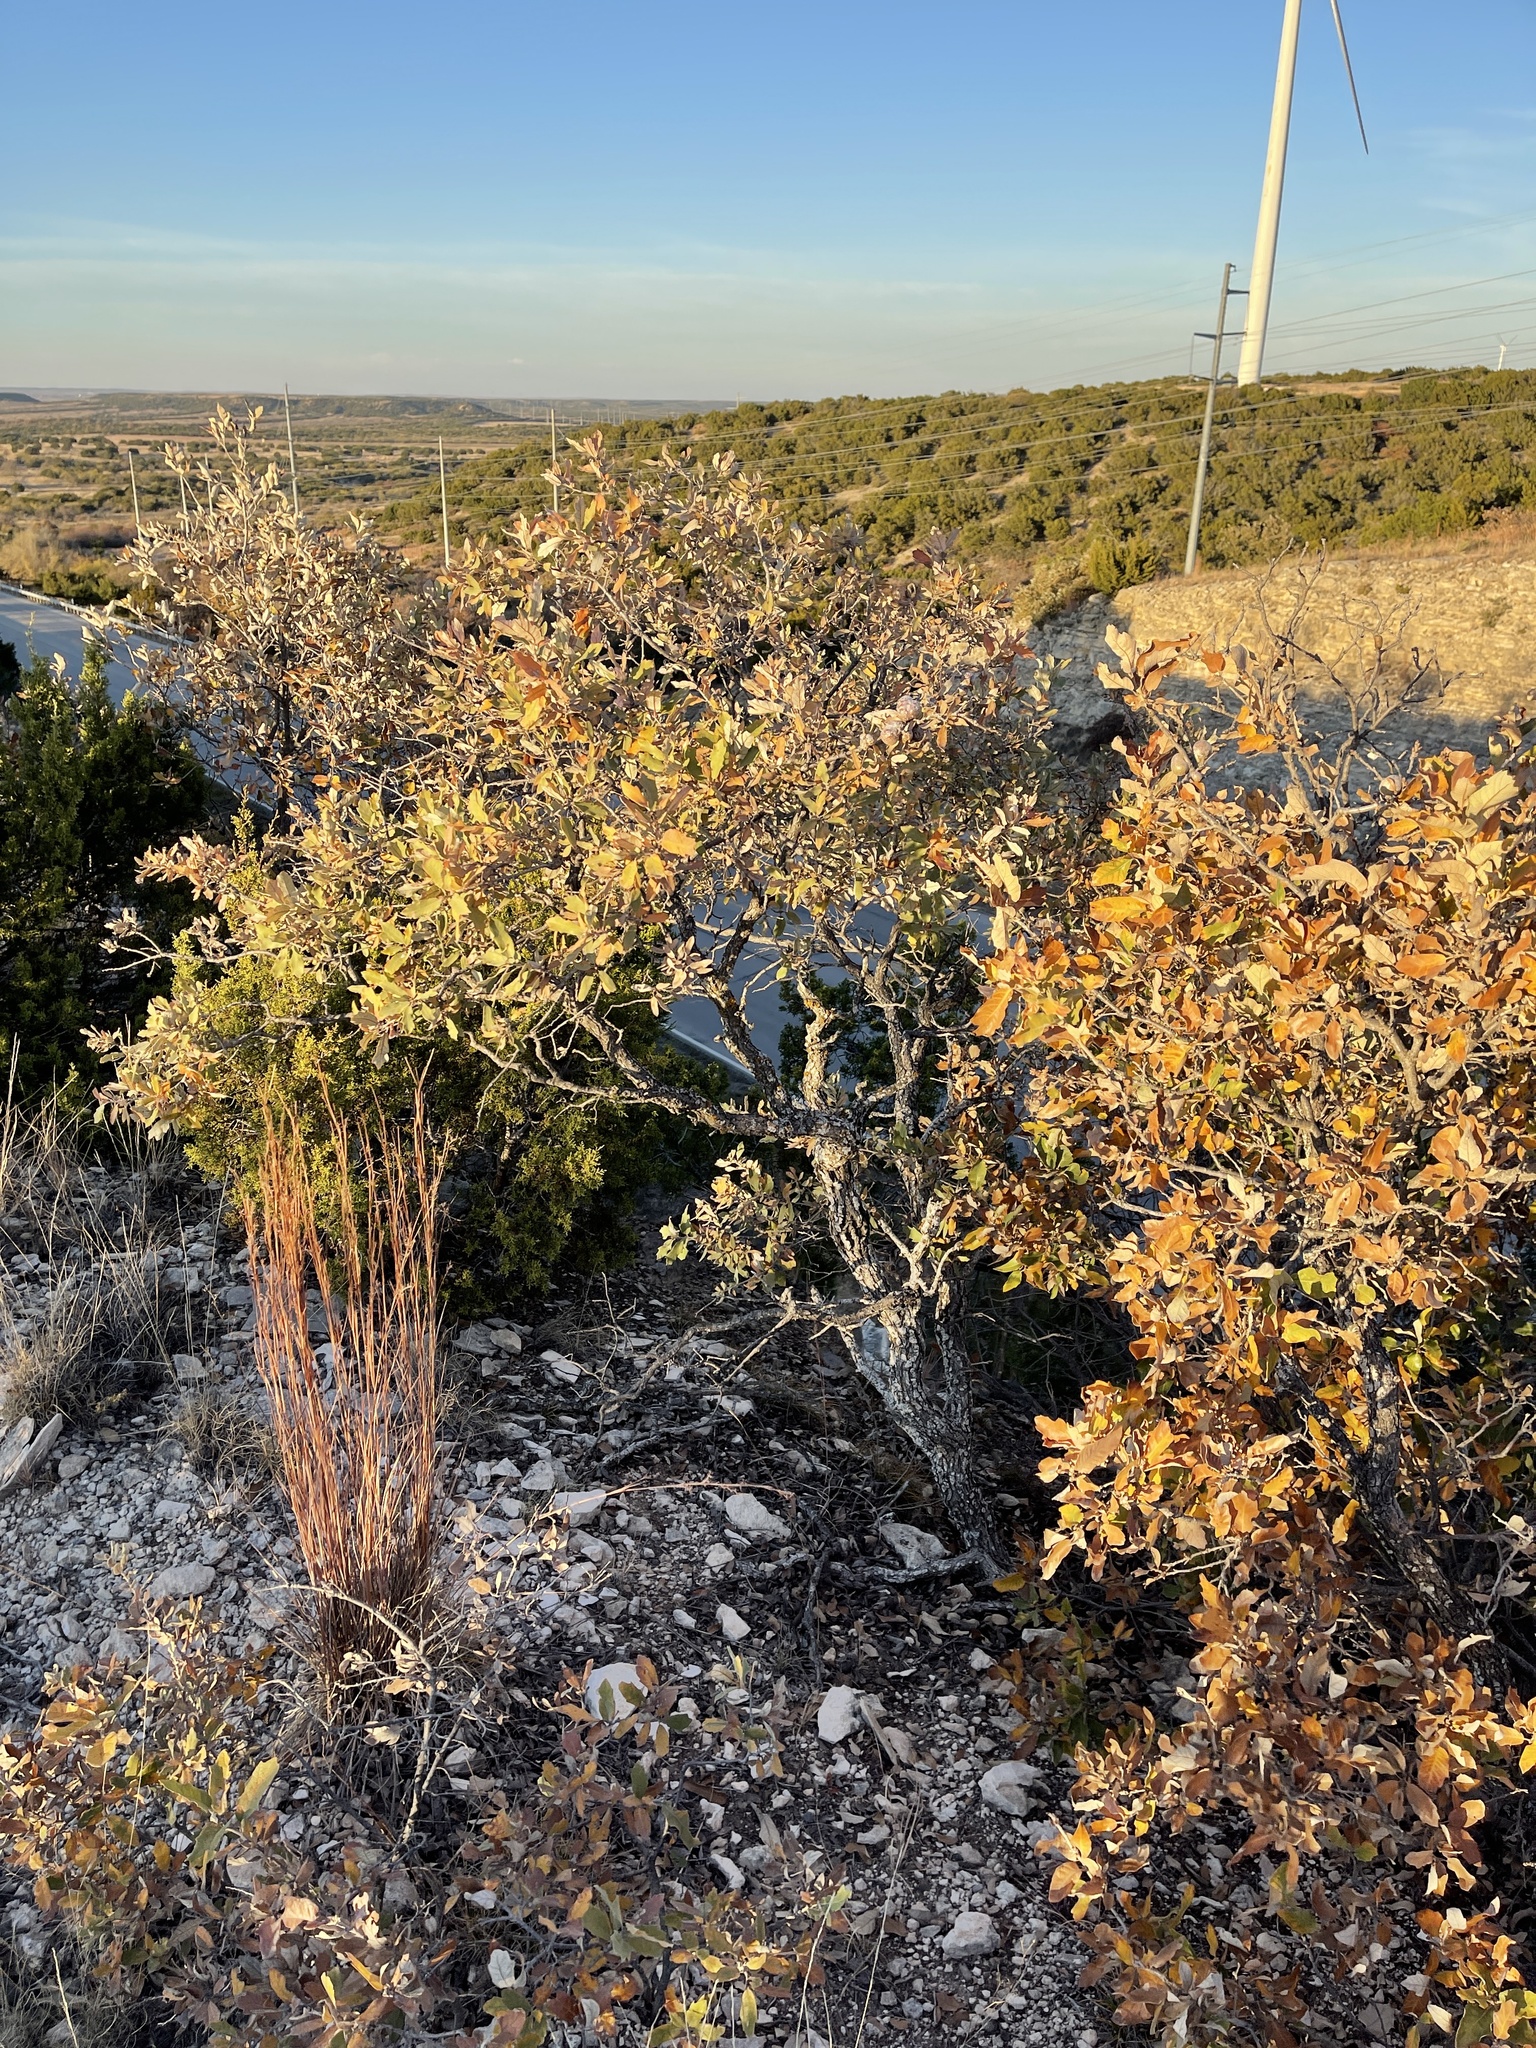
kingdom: Plantae
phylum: Tracheophyta
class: Magnoliopsida
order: Fagales
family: Fagaceae
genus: Quercus
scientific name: Quercus havardii
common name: Shinnery oak
